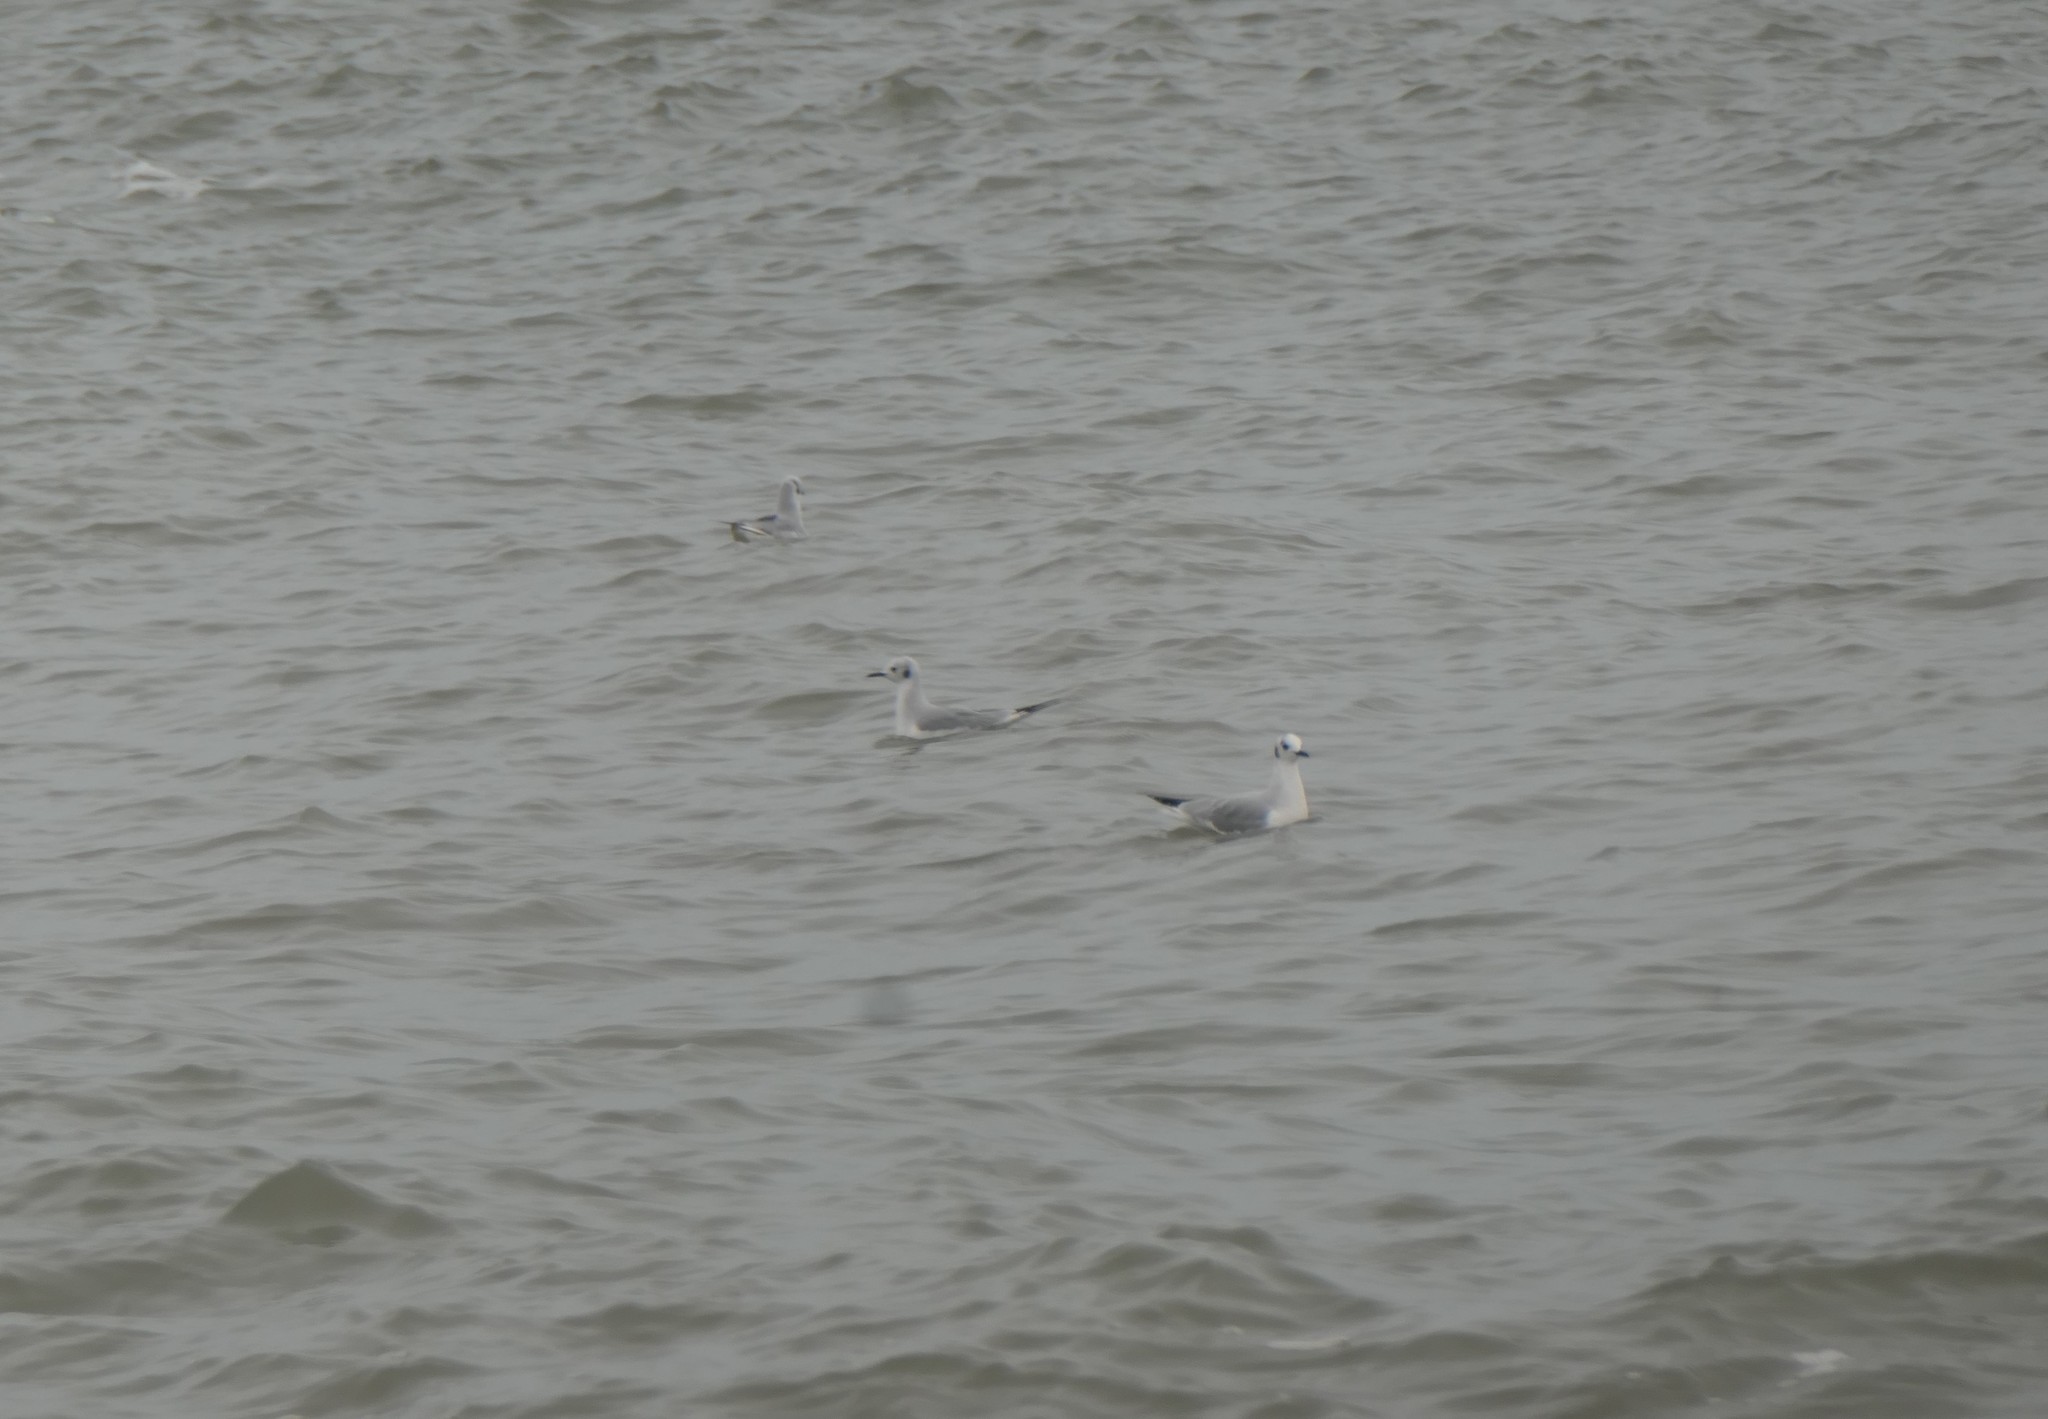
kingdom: Animalia
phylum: Chordata
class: Aves
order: Charadriiformes
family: Laridae
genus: Chroicocephalus
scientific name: Chroicocephalus philadelphia
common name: Bonaparte's gull
